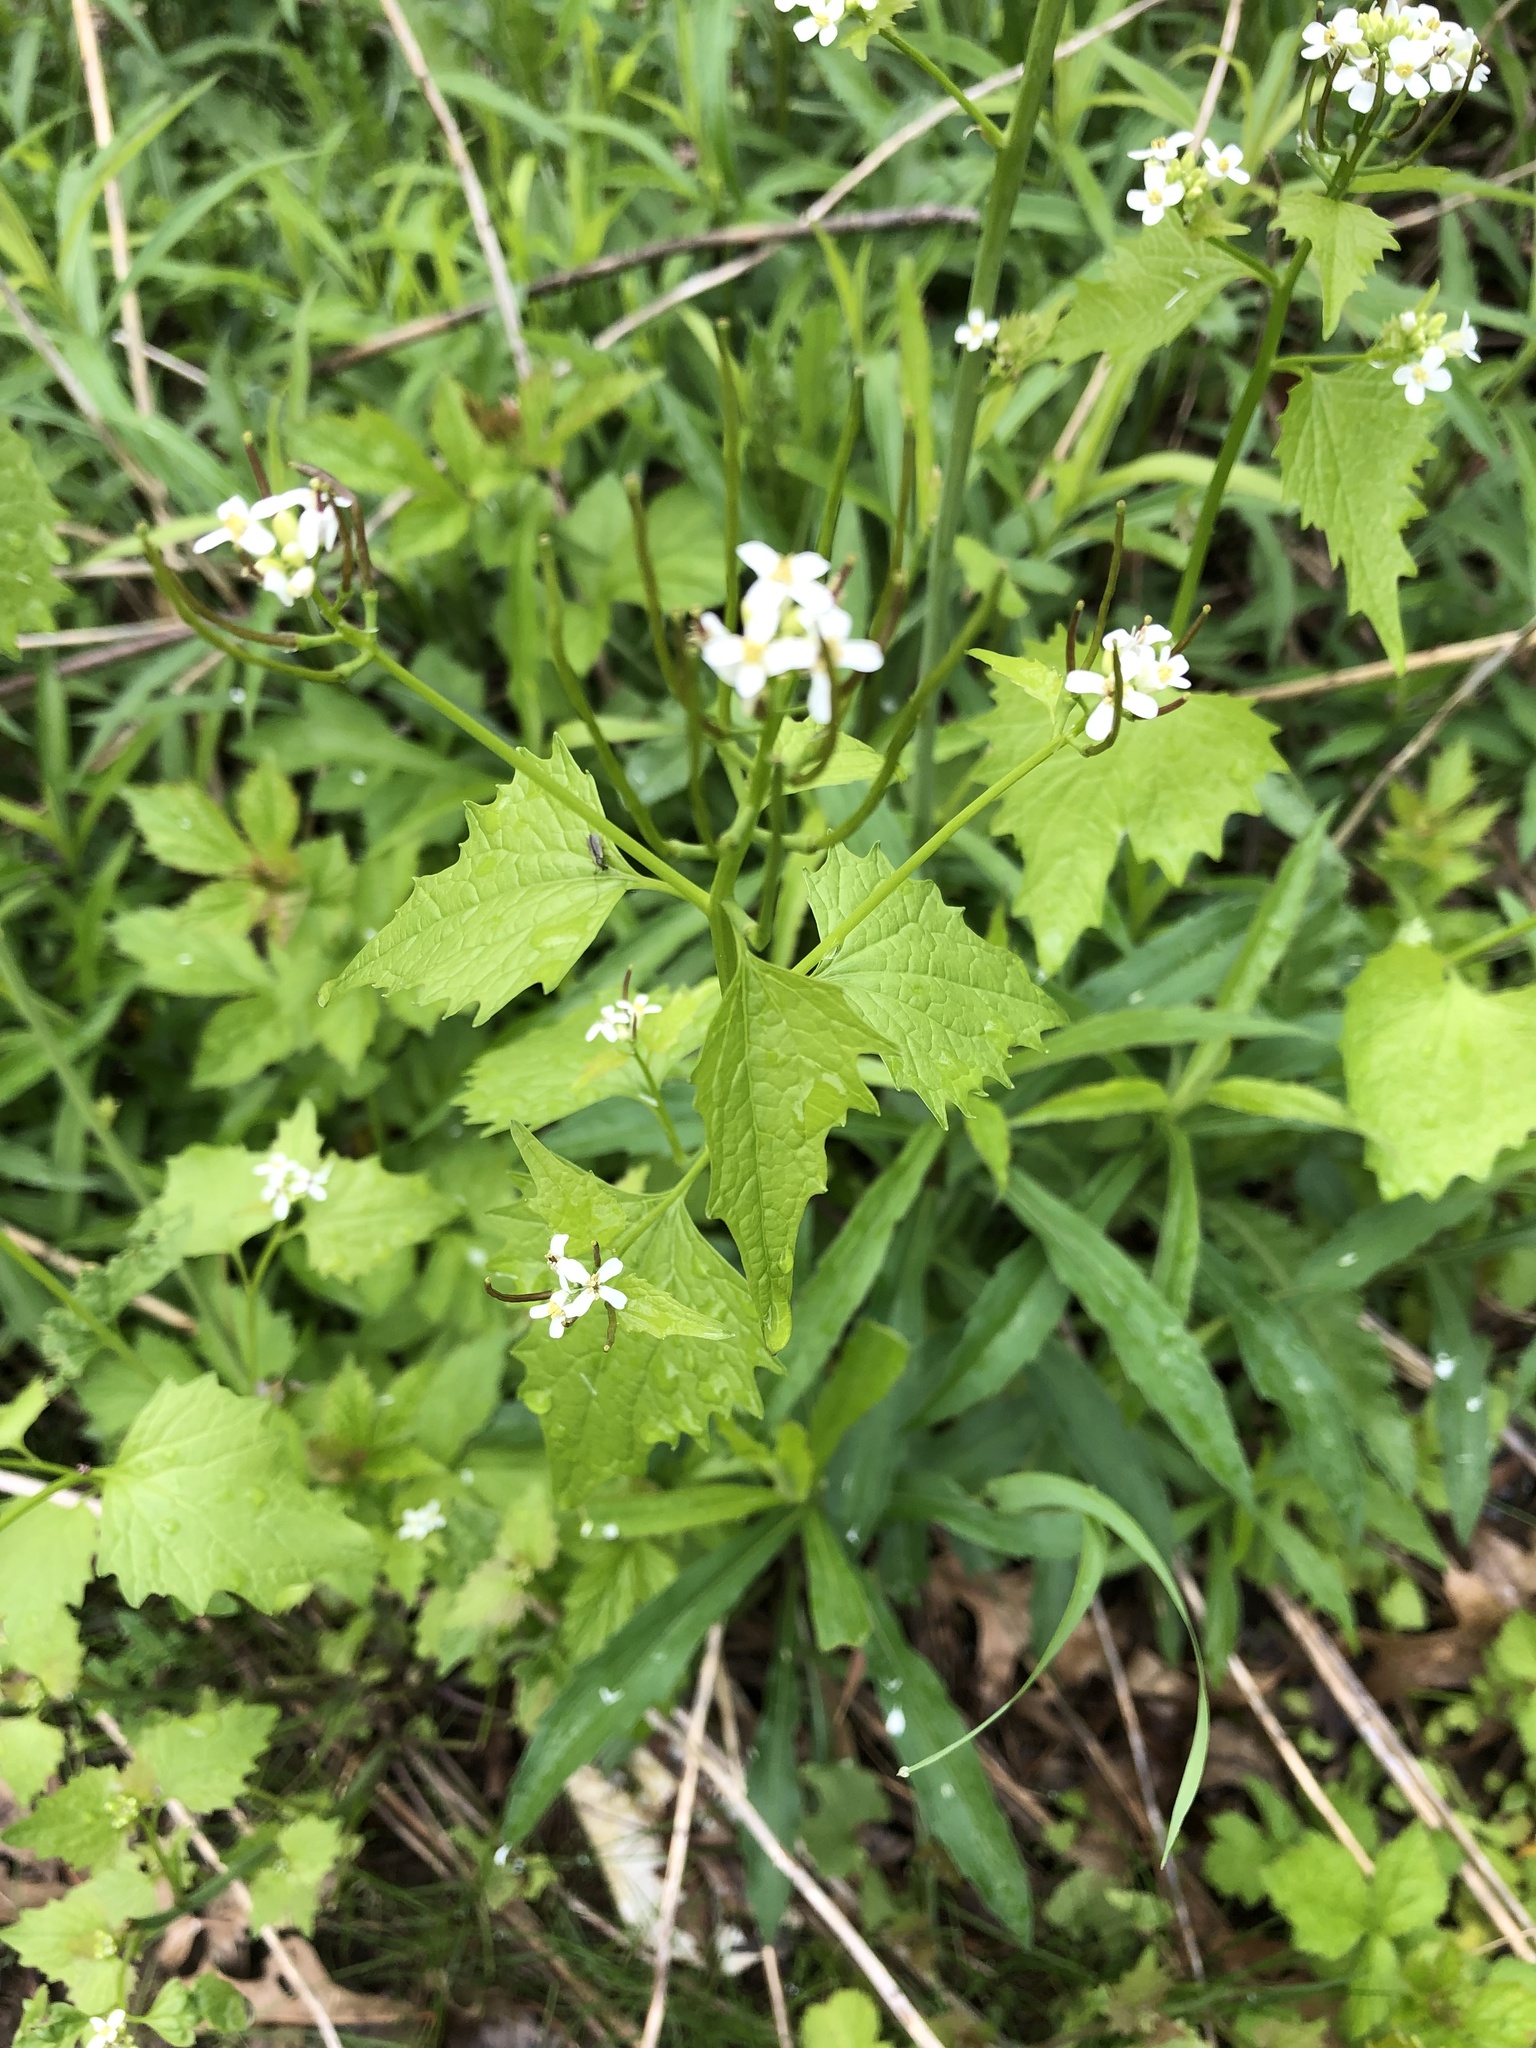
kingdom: Plantae
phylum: Tracheophyta
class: Magnoliopsida
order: Brassicales
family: Brassicaceae
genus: Alliaria
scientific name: Alliaria petiolata
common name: Garlic mustard
